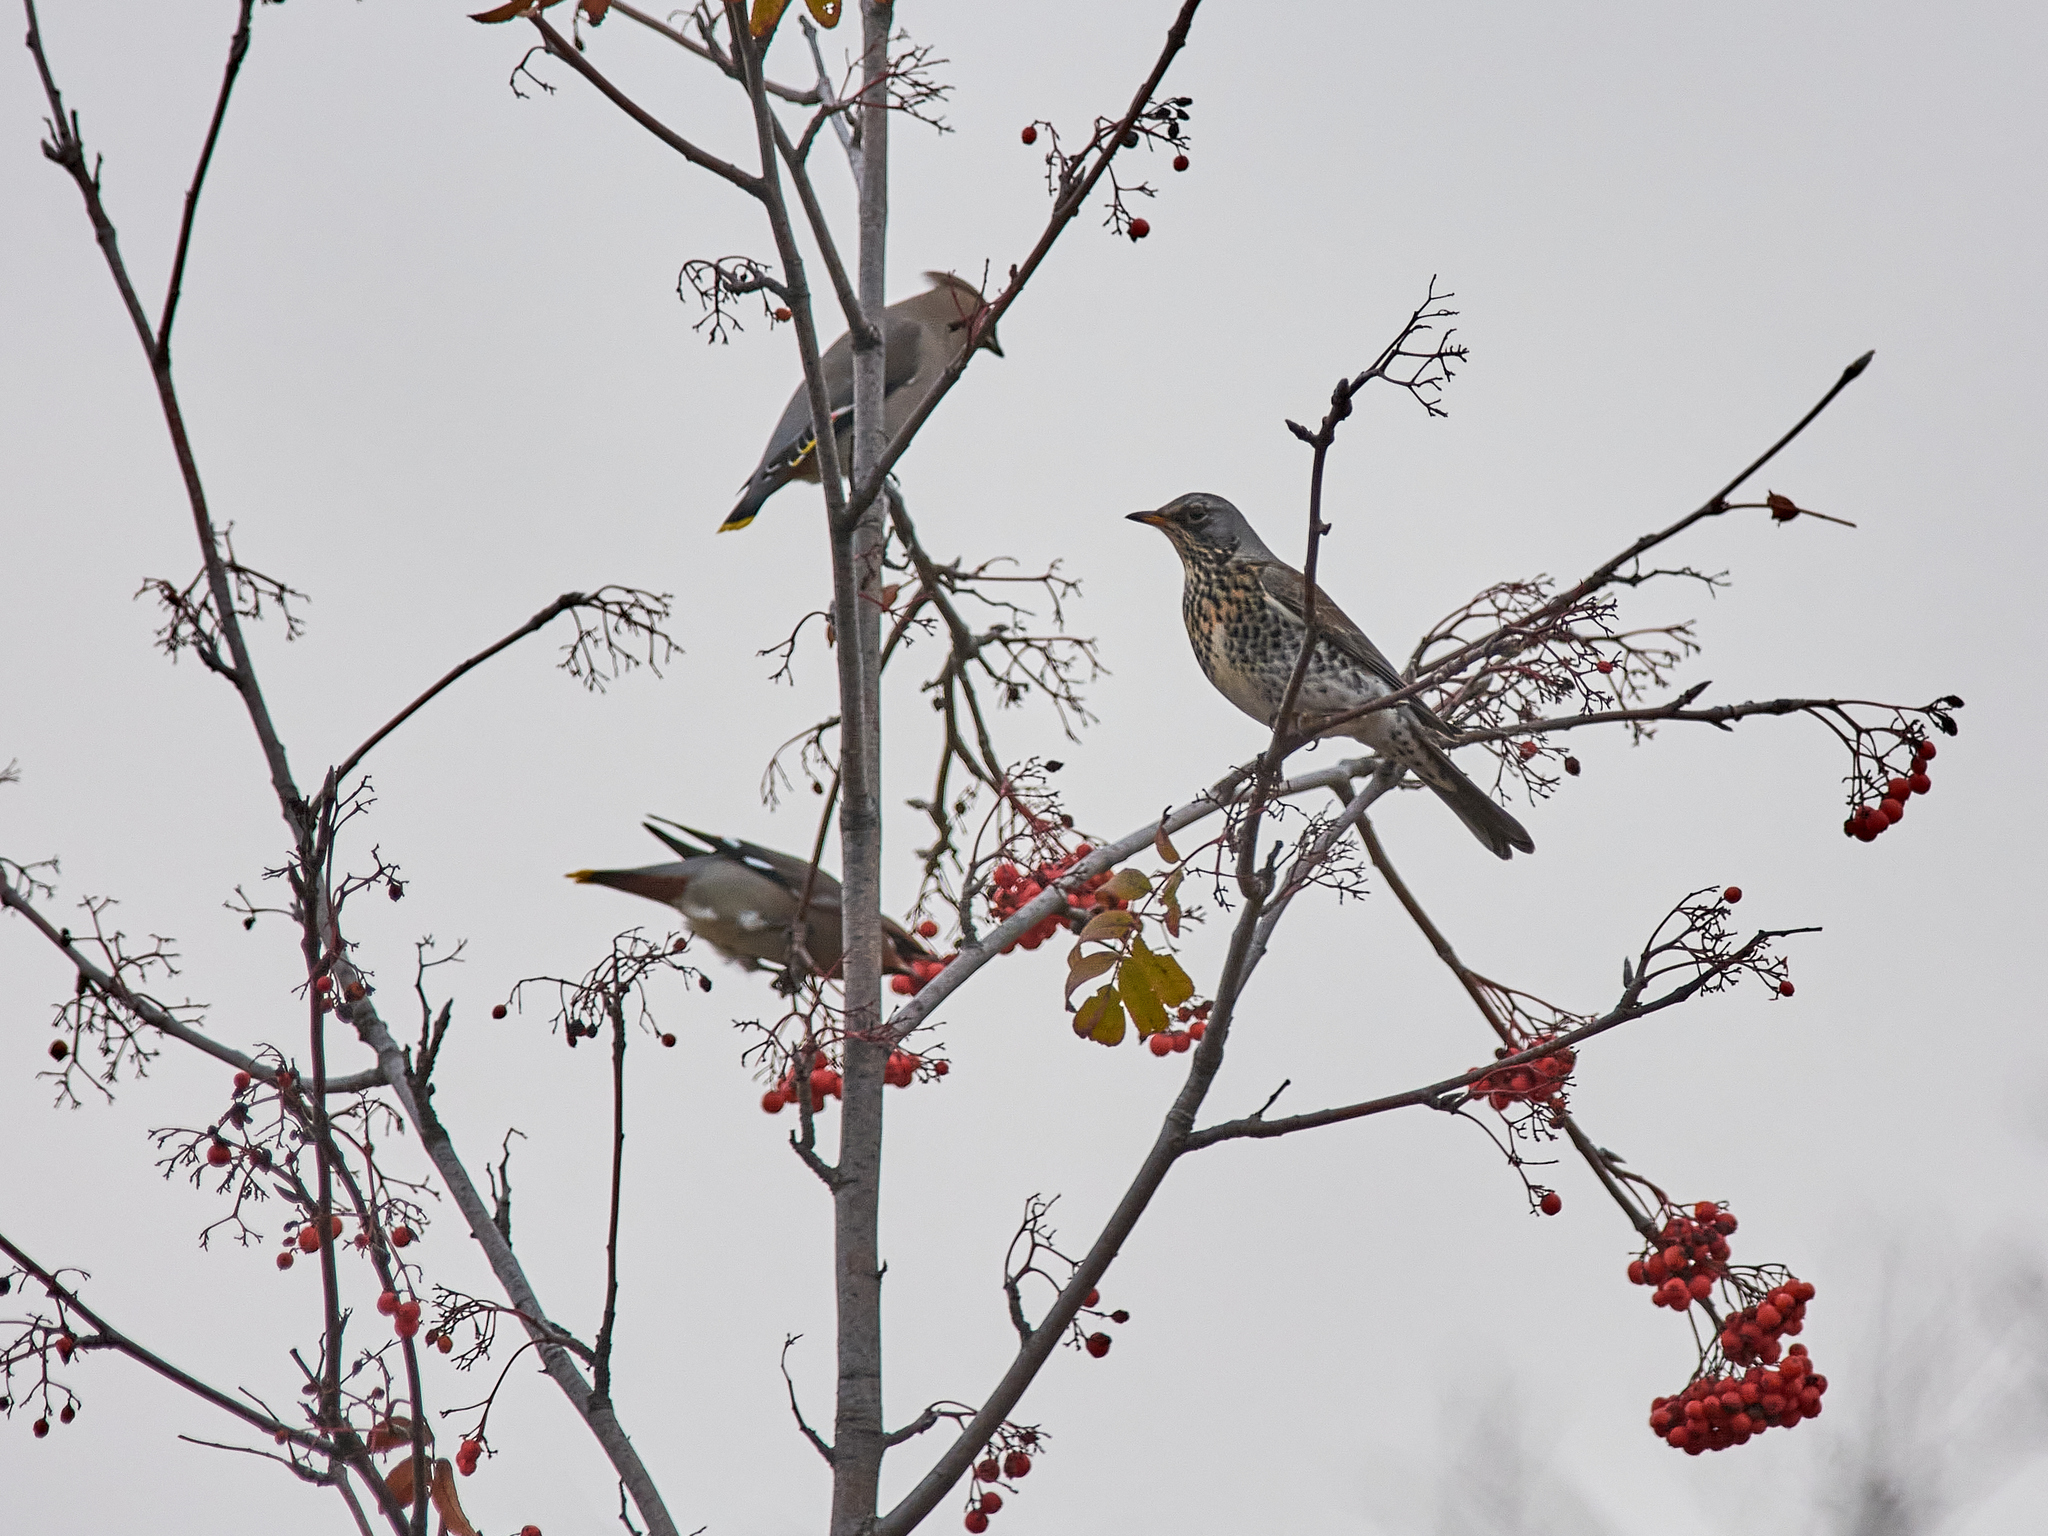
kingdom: Animalia
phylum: Chordata
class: Aves
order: Passeriformes
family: Turdidae
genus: Turdus
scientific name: Turdus pilaris
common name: Fieldfare
